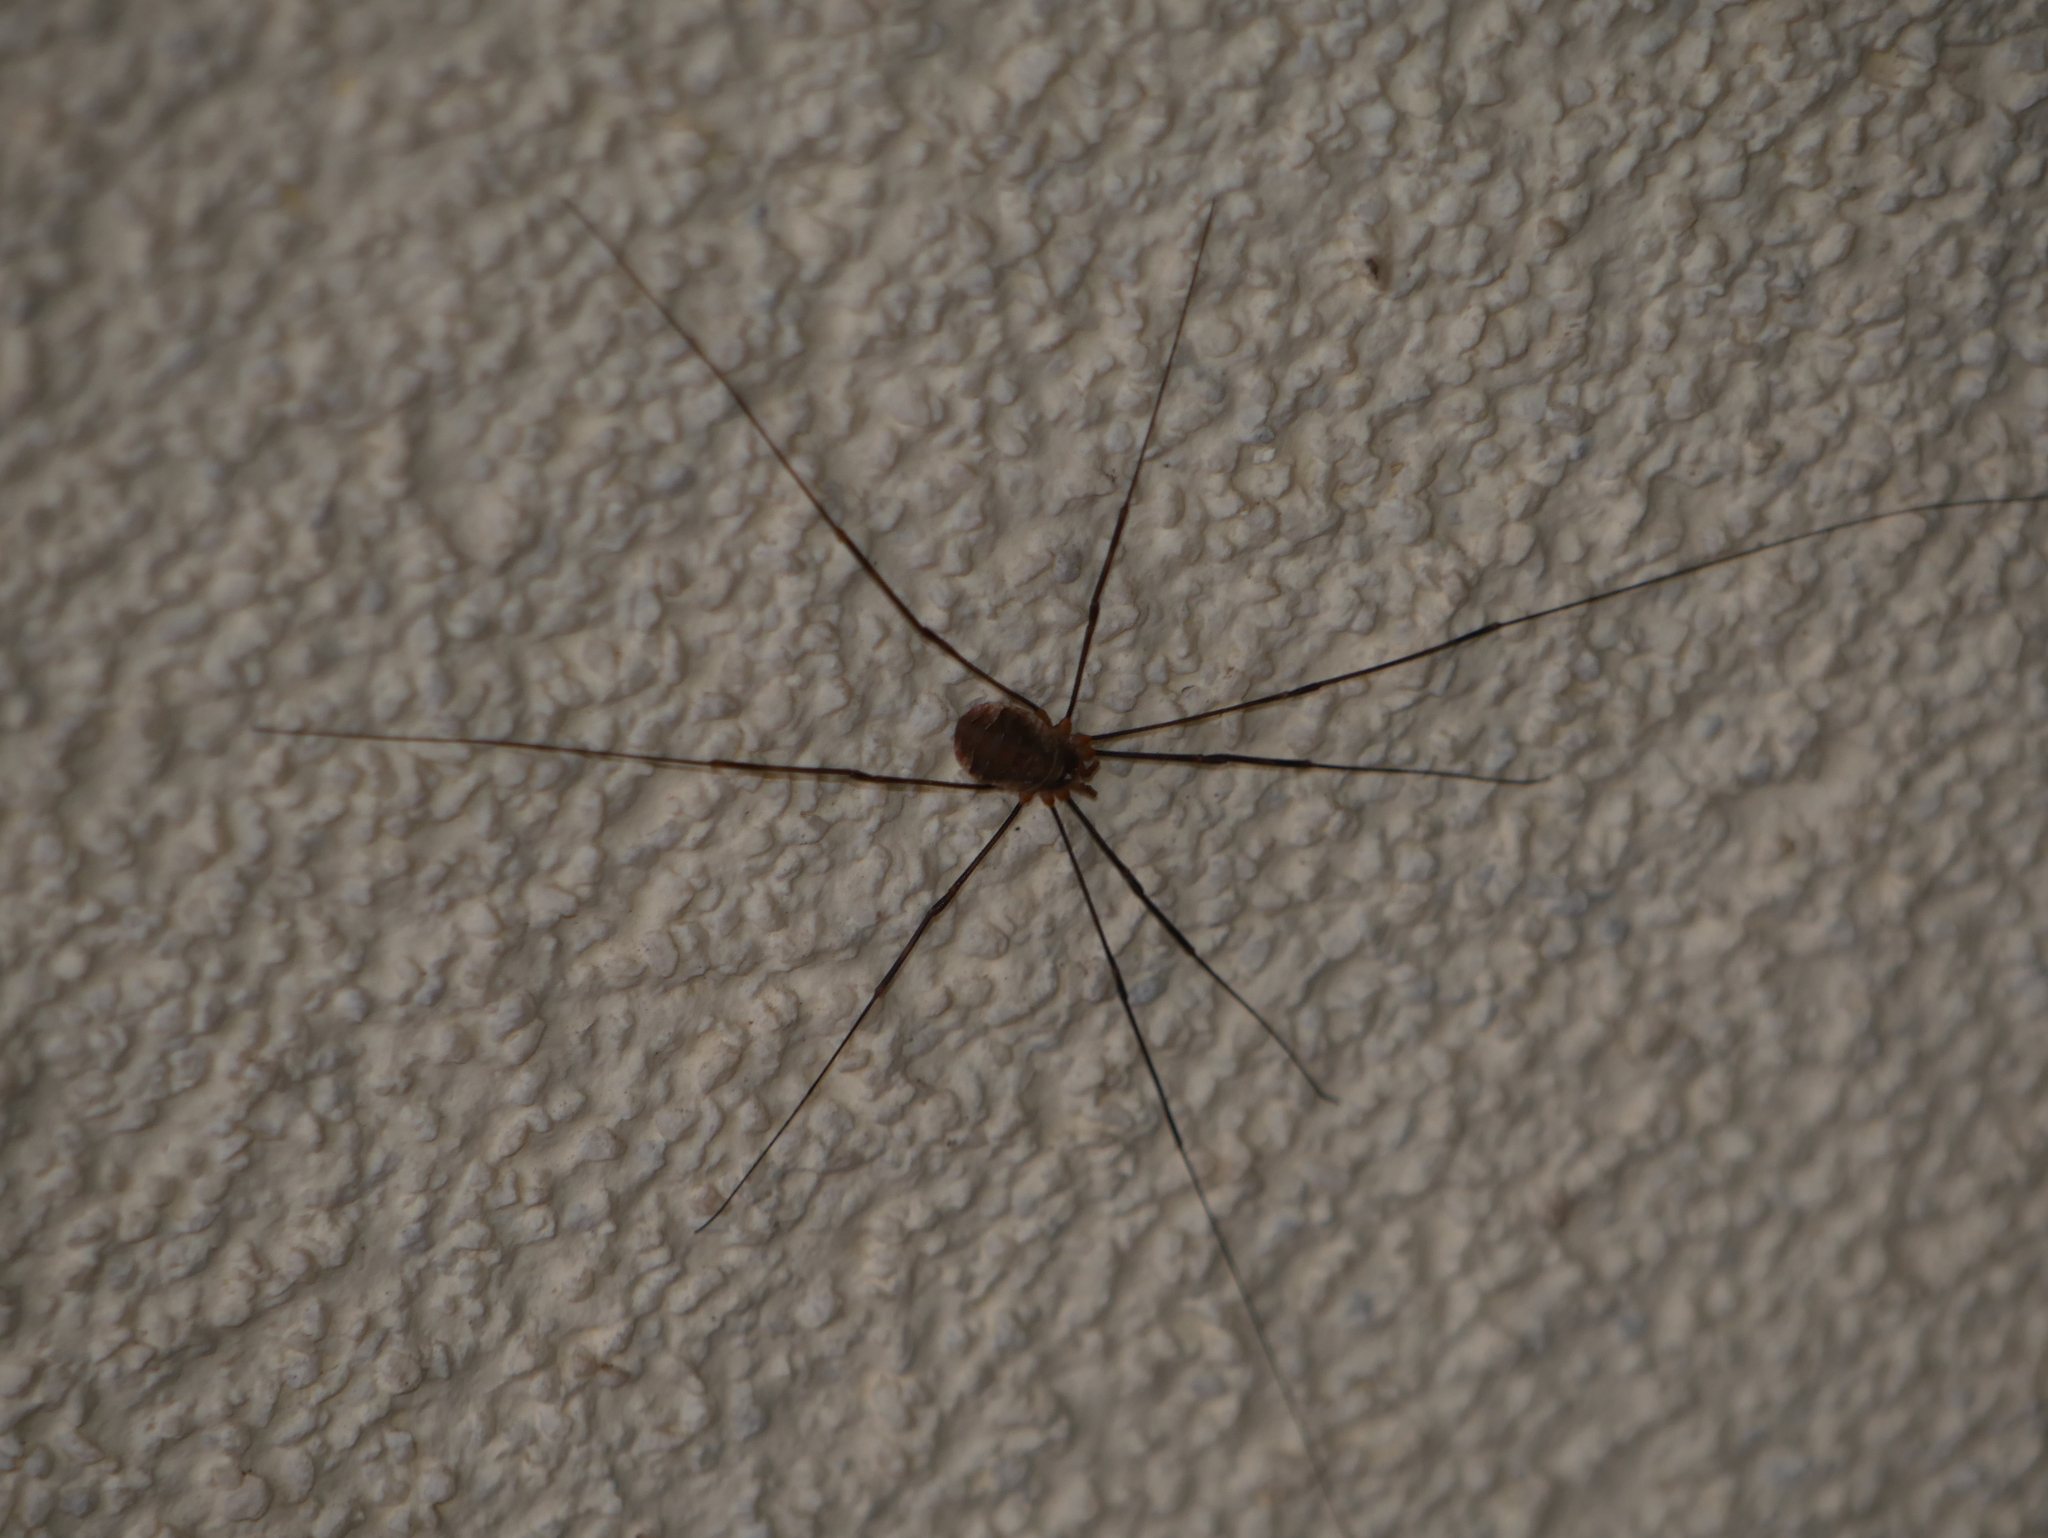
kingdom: Animalia
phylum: Arthropoda
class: Arachnida
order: Opiliones
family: Phalangiidae
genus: Opilio
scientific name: Opilio canestrinii
